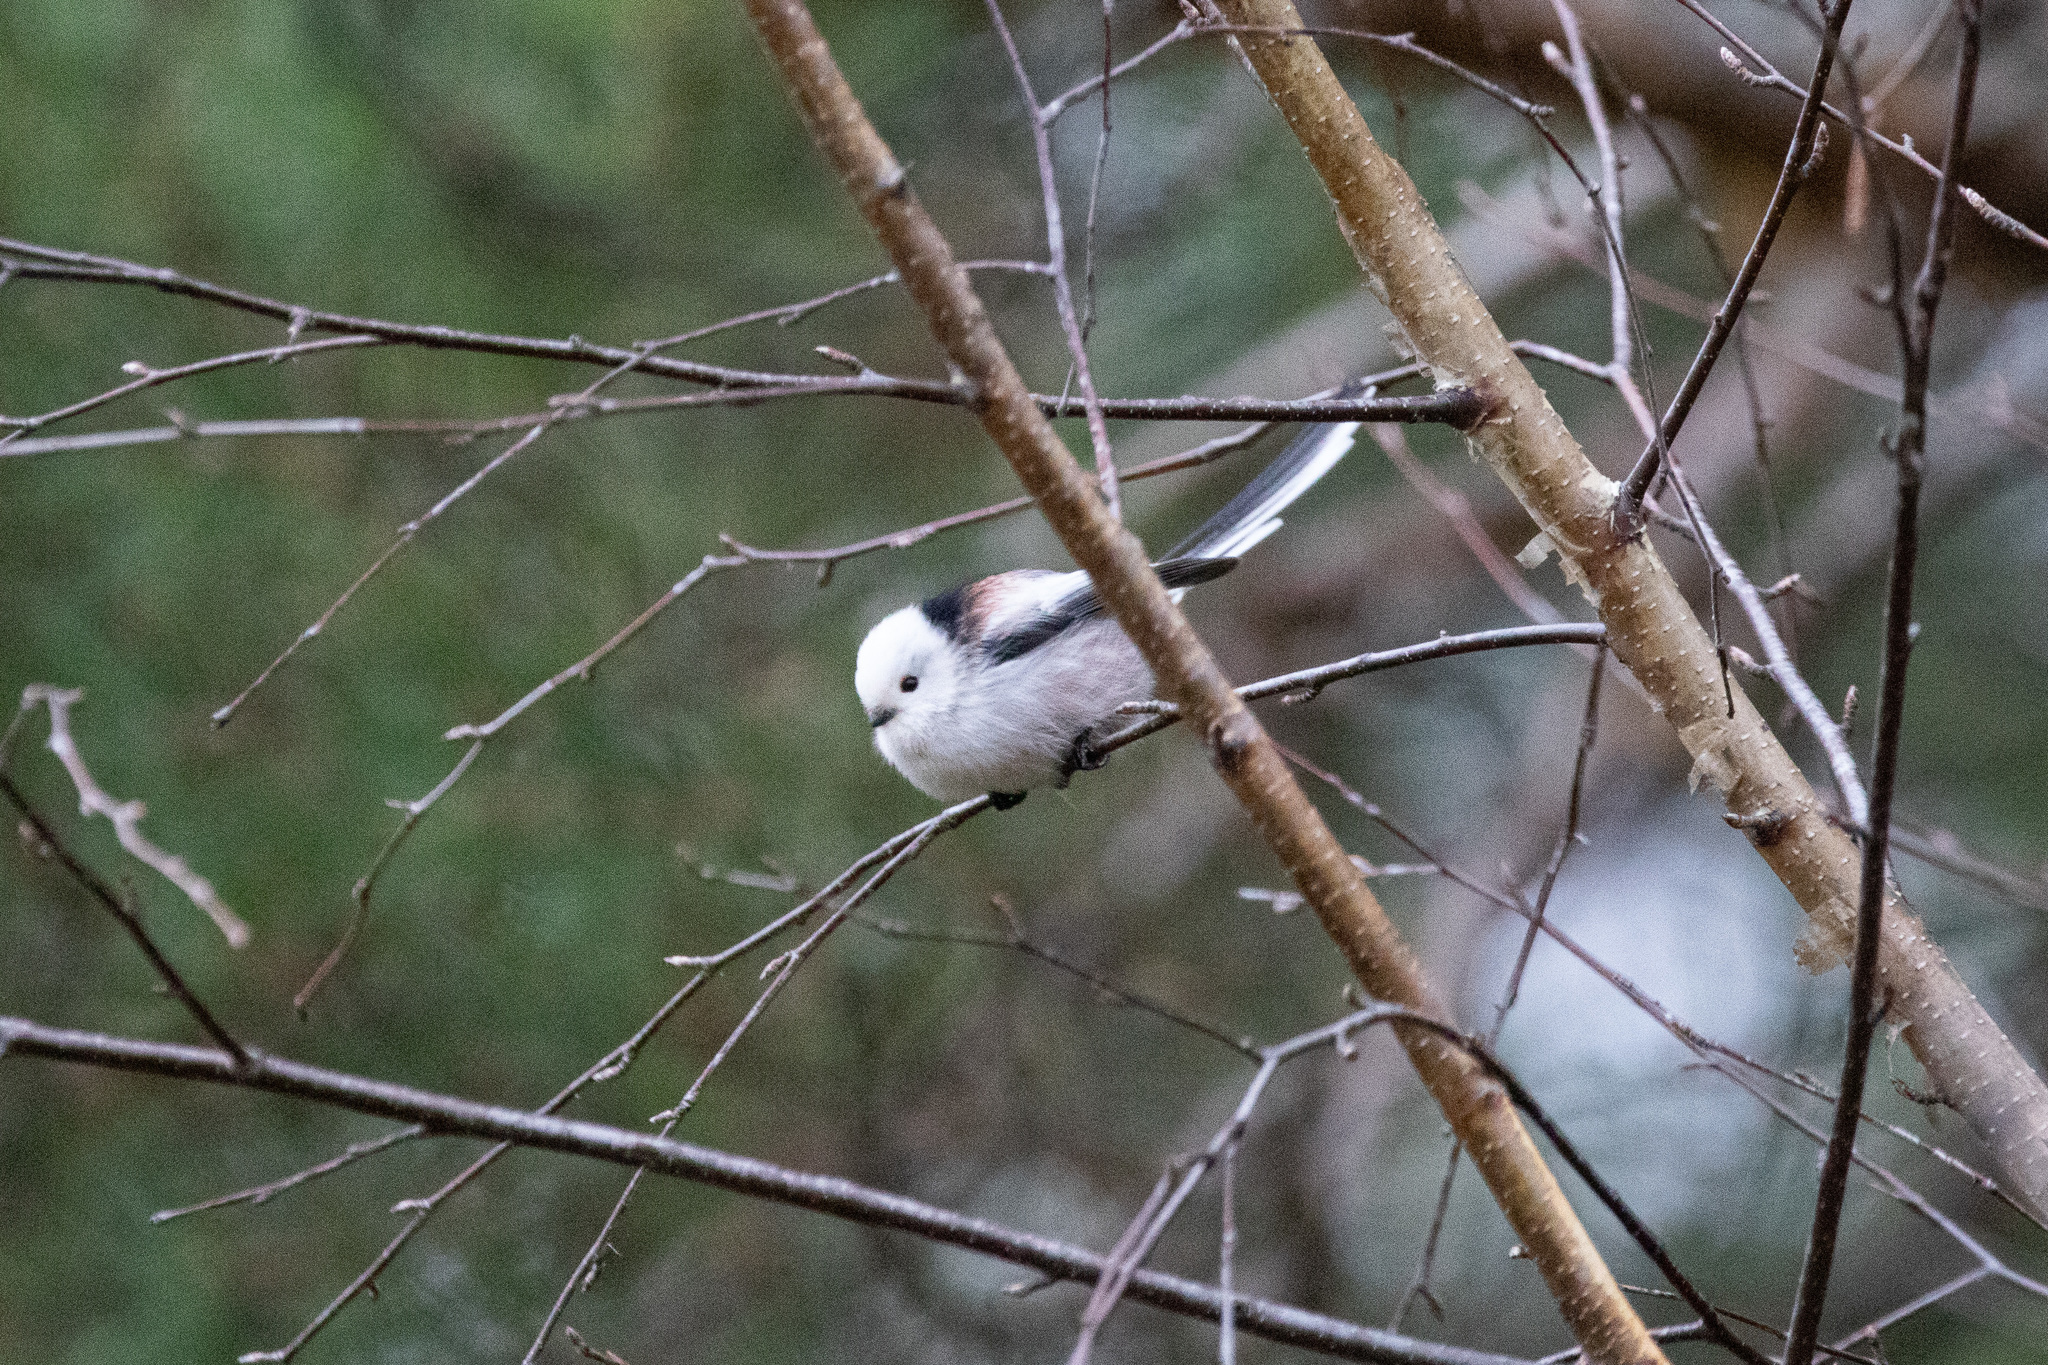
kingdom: Animalia
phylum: Chordata
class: Aves
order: Passeriformes
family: Aegithalidae
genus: Aegithalos
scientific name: Aegithalos caudatus
